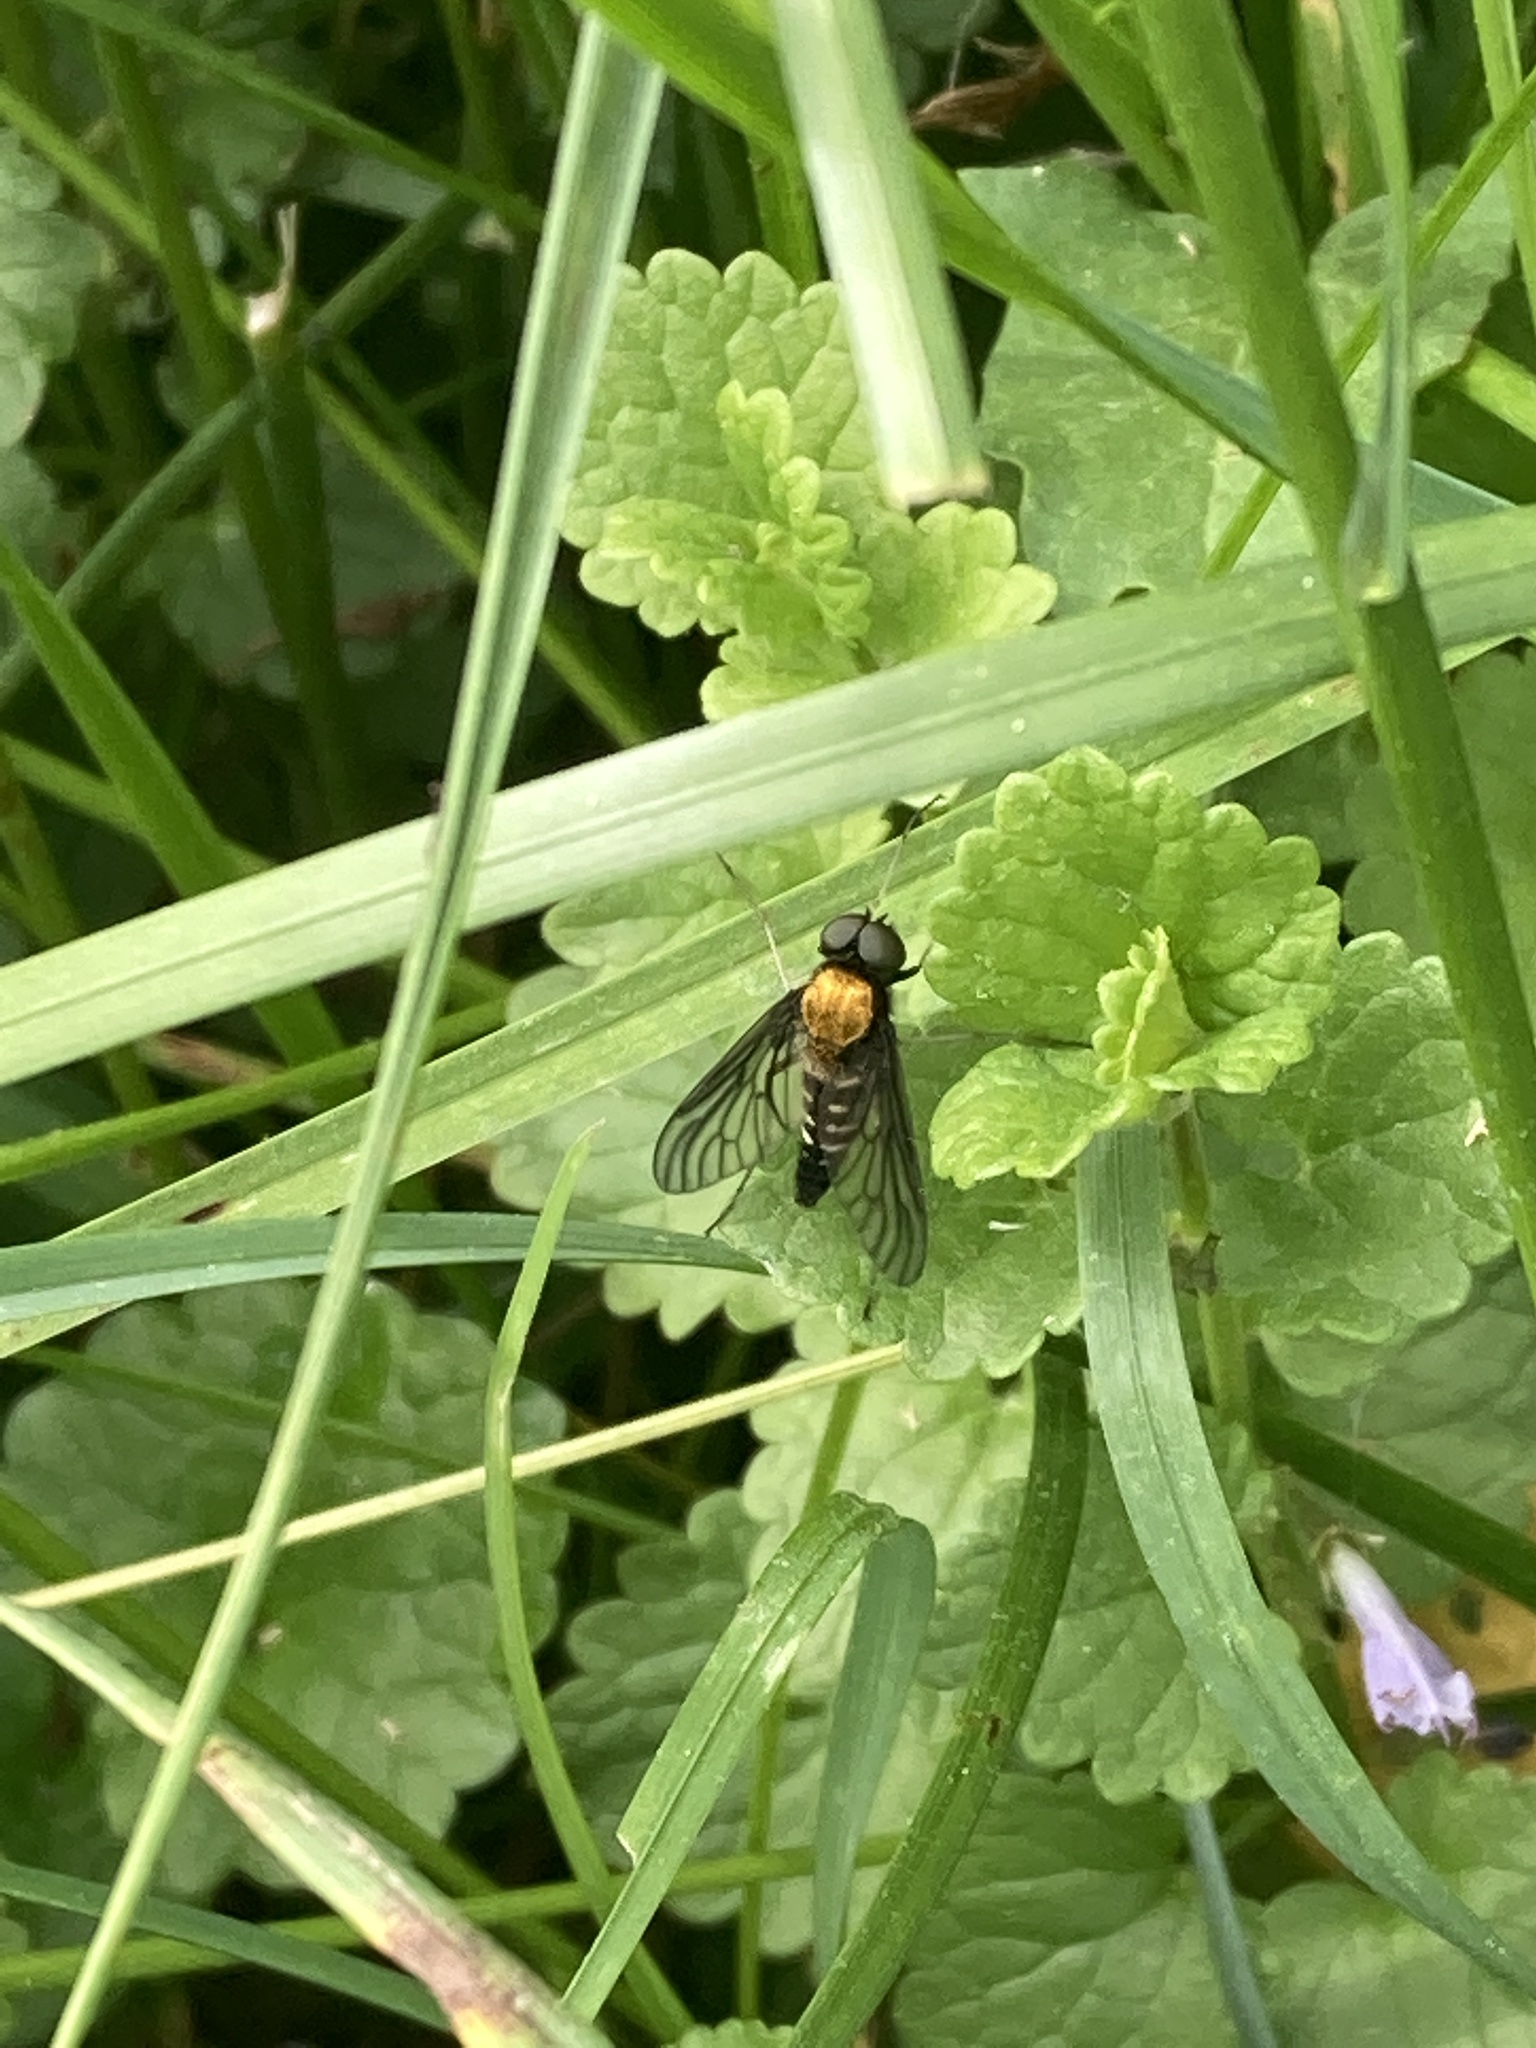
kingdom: Animalia
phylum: Arthropoda
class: Insecta
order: Diptera
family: Rhagionidae
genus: Chrysopilus
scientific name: Chrysopilus thoracicus
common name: Golden-backed snipe fly
